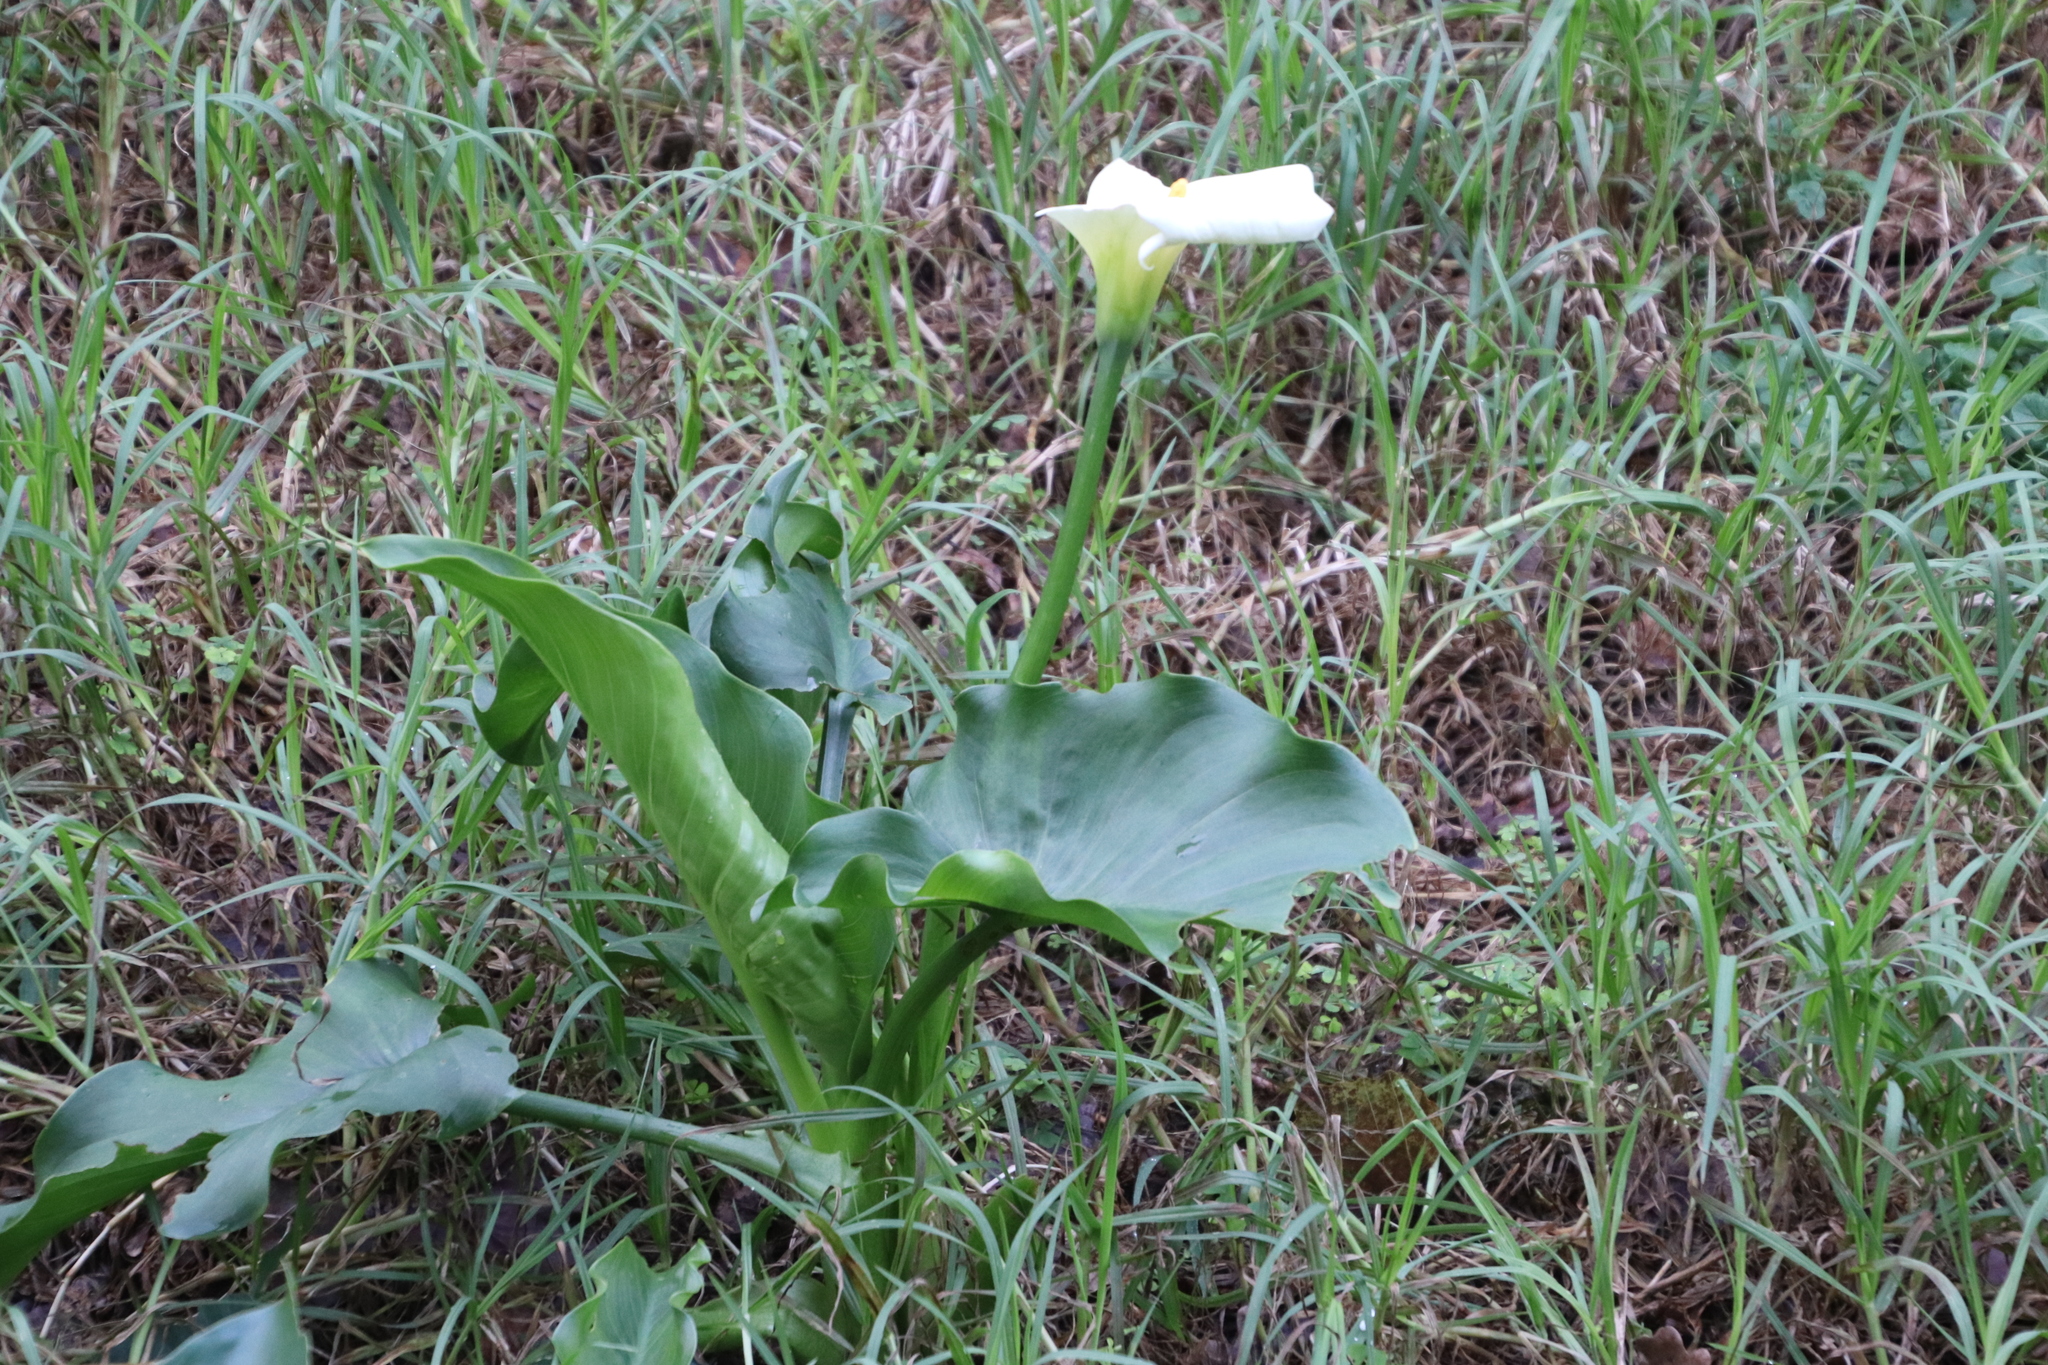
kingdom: Plantae
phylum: Tracheophyta
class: Liliopsida
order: Alismatales
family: Araceae
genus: Zantedeschia
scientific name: Zantedeschia aethiopica
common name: Altar-lily
